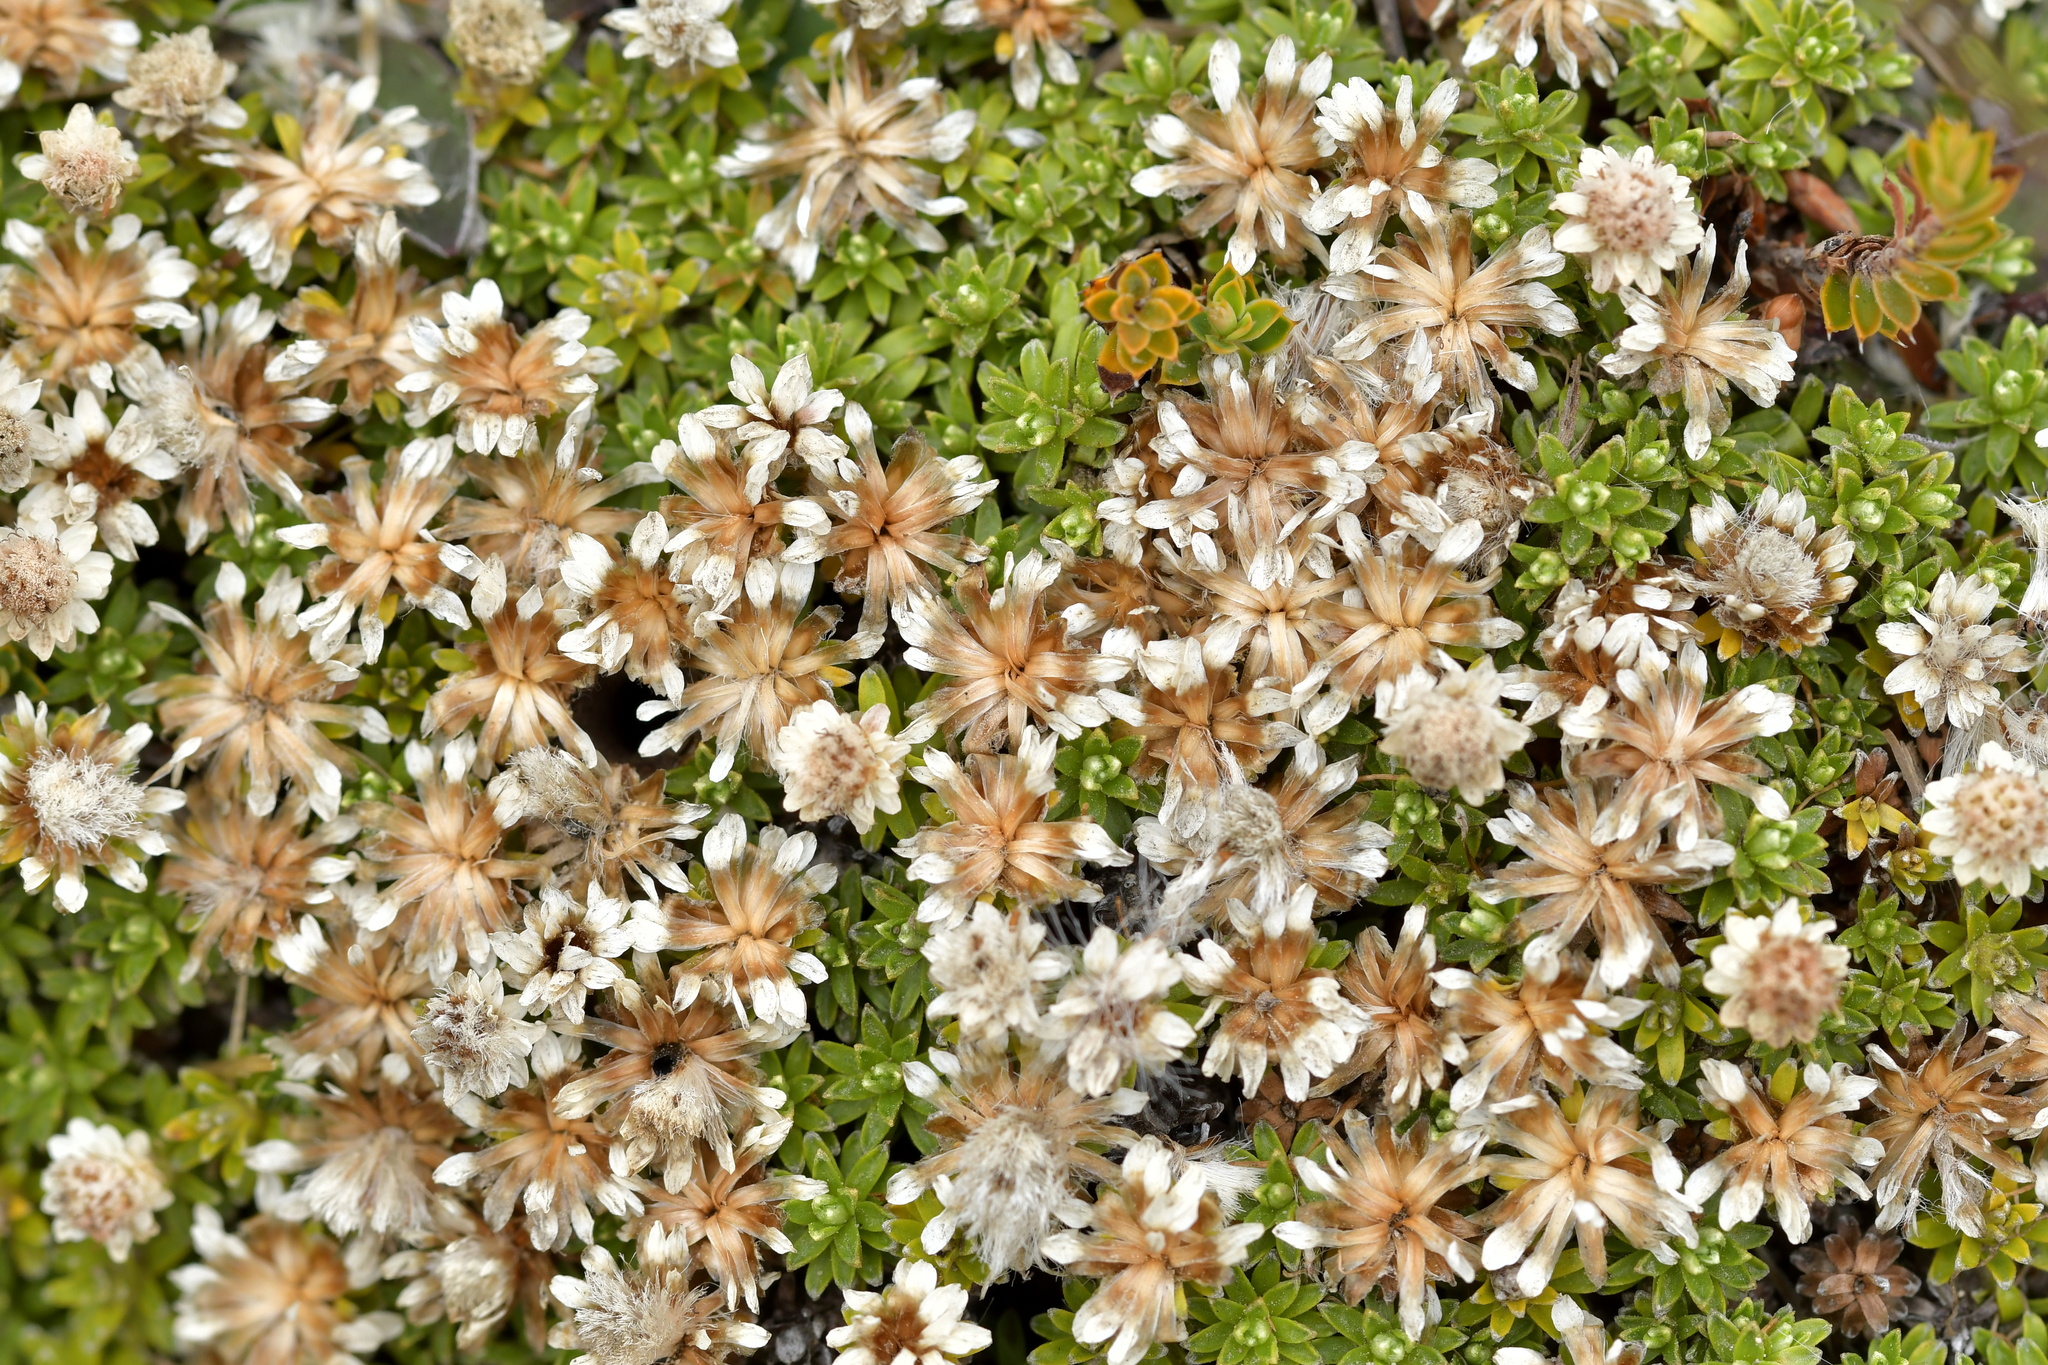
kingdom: Plantae
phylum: Tracheophyta
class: Magnoliopsida
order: Asterales
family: Asteraceae
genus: Raoulia
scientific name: Raoulia subsericea
